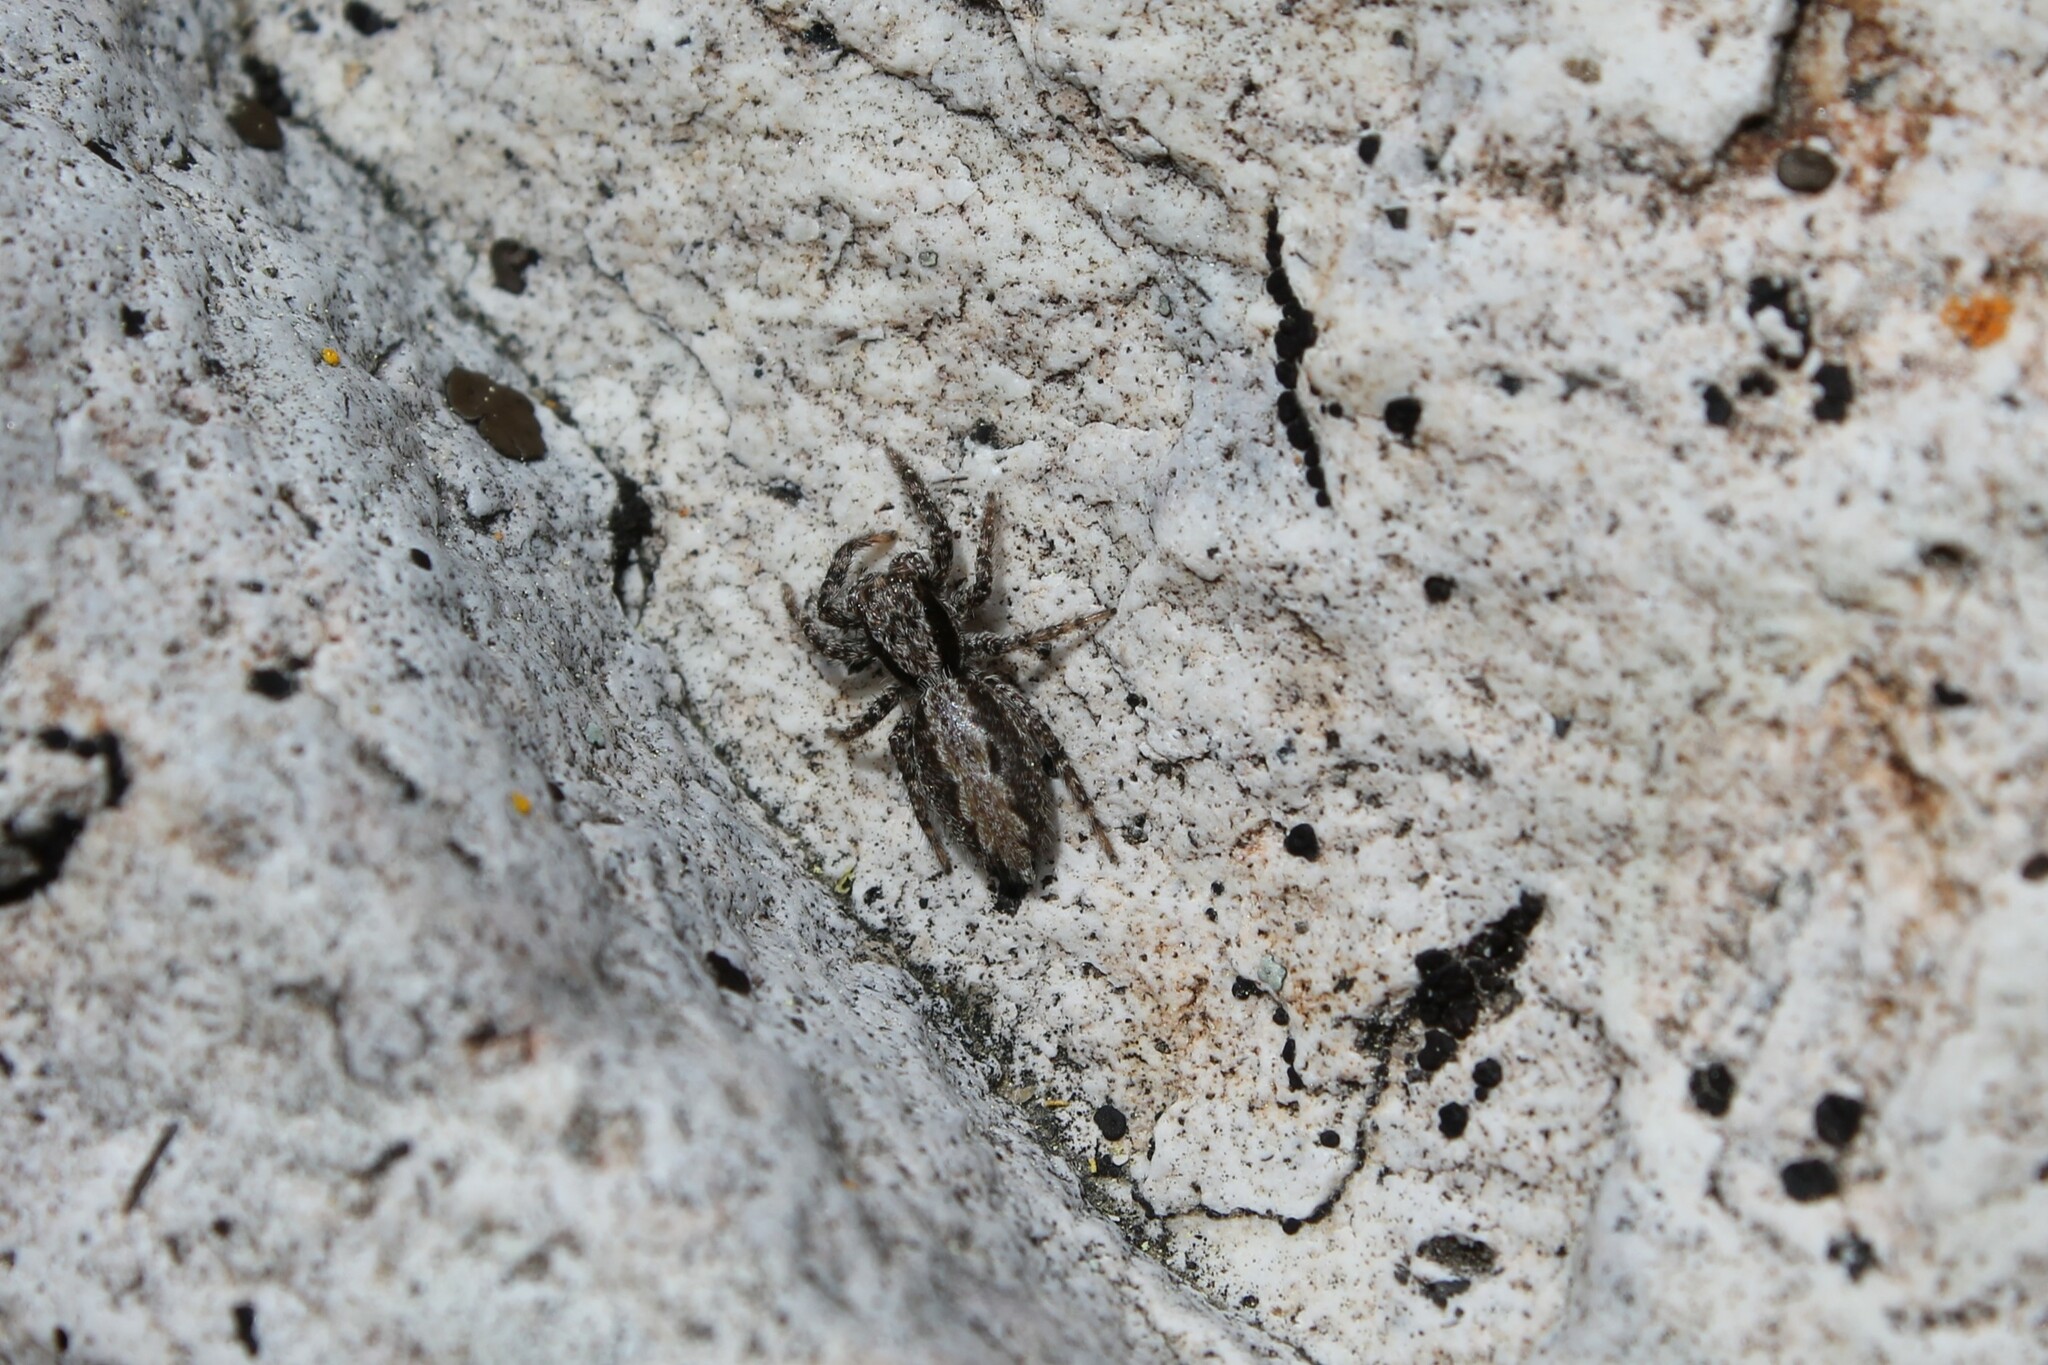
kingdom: Animalia
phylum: Arthropoda
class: Arachnida
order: Araneae
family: Salticidae
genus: Platycryptus
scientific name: Platycryptus californicus
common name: Jumping spiders
